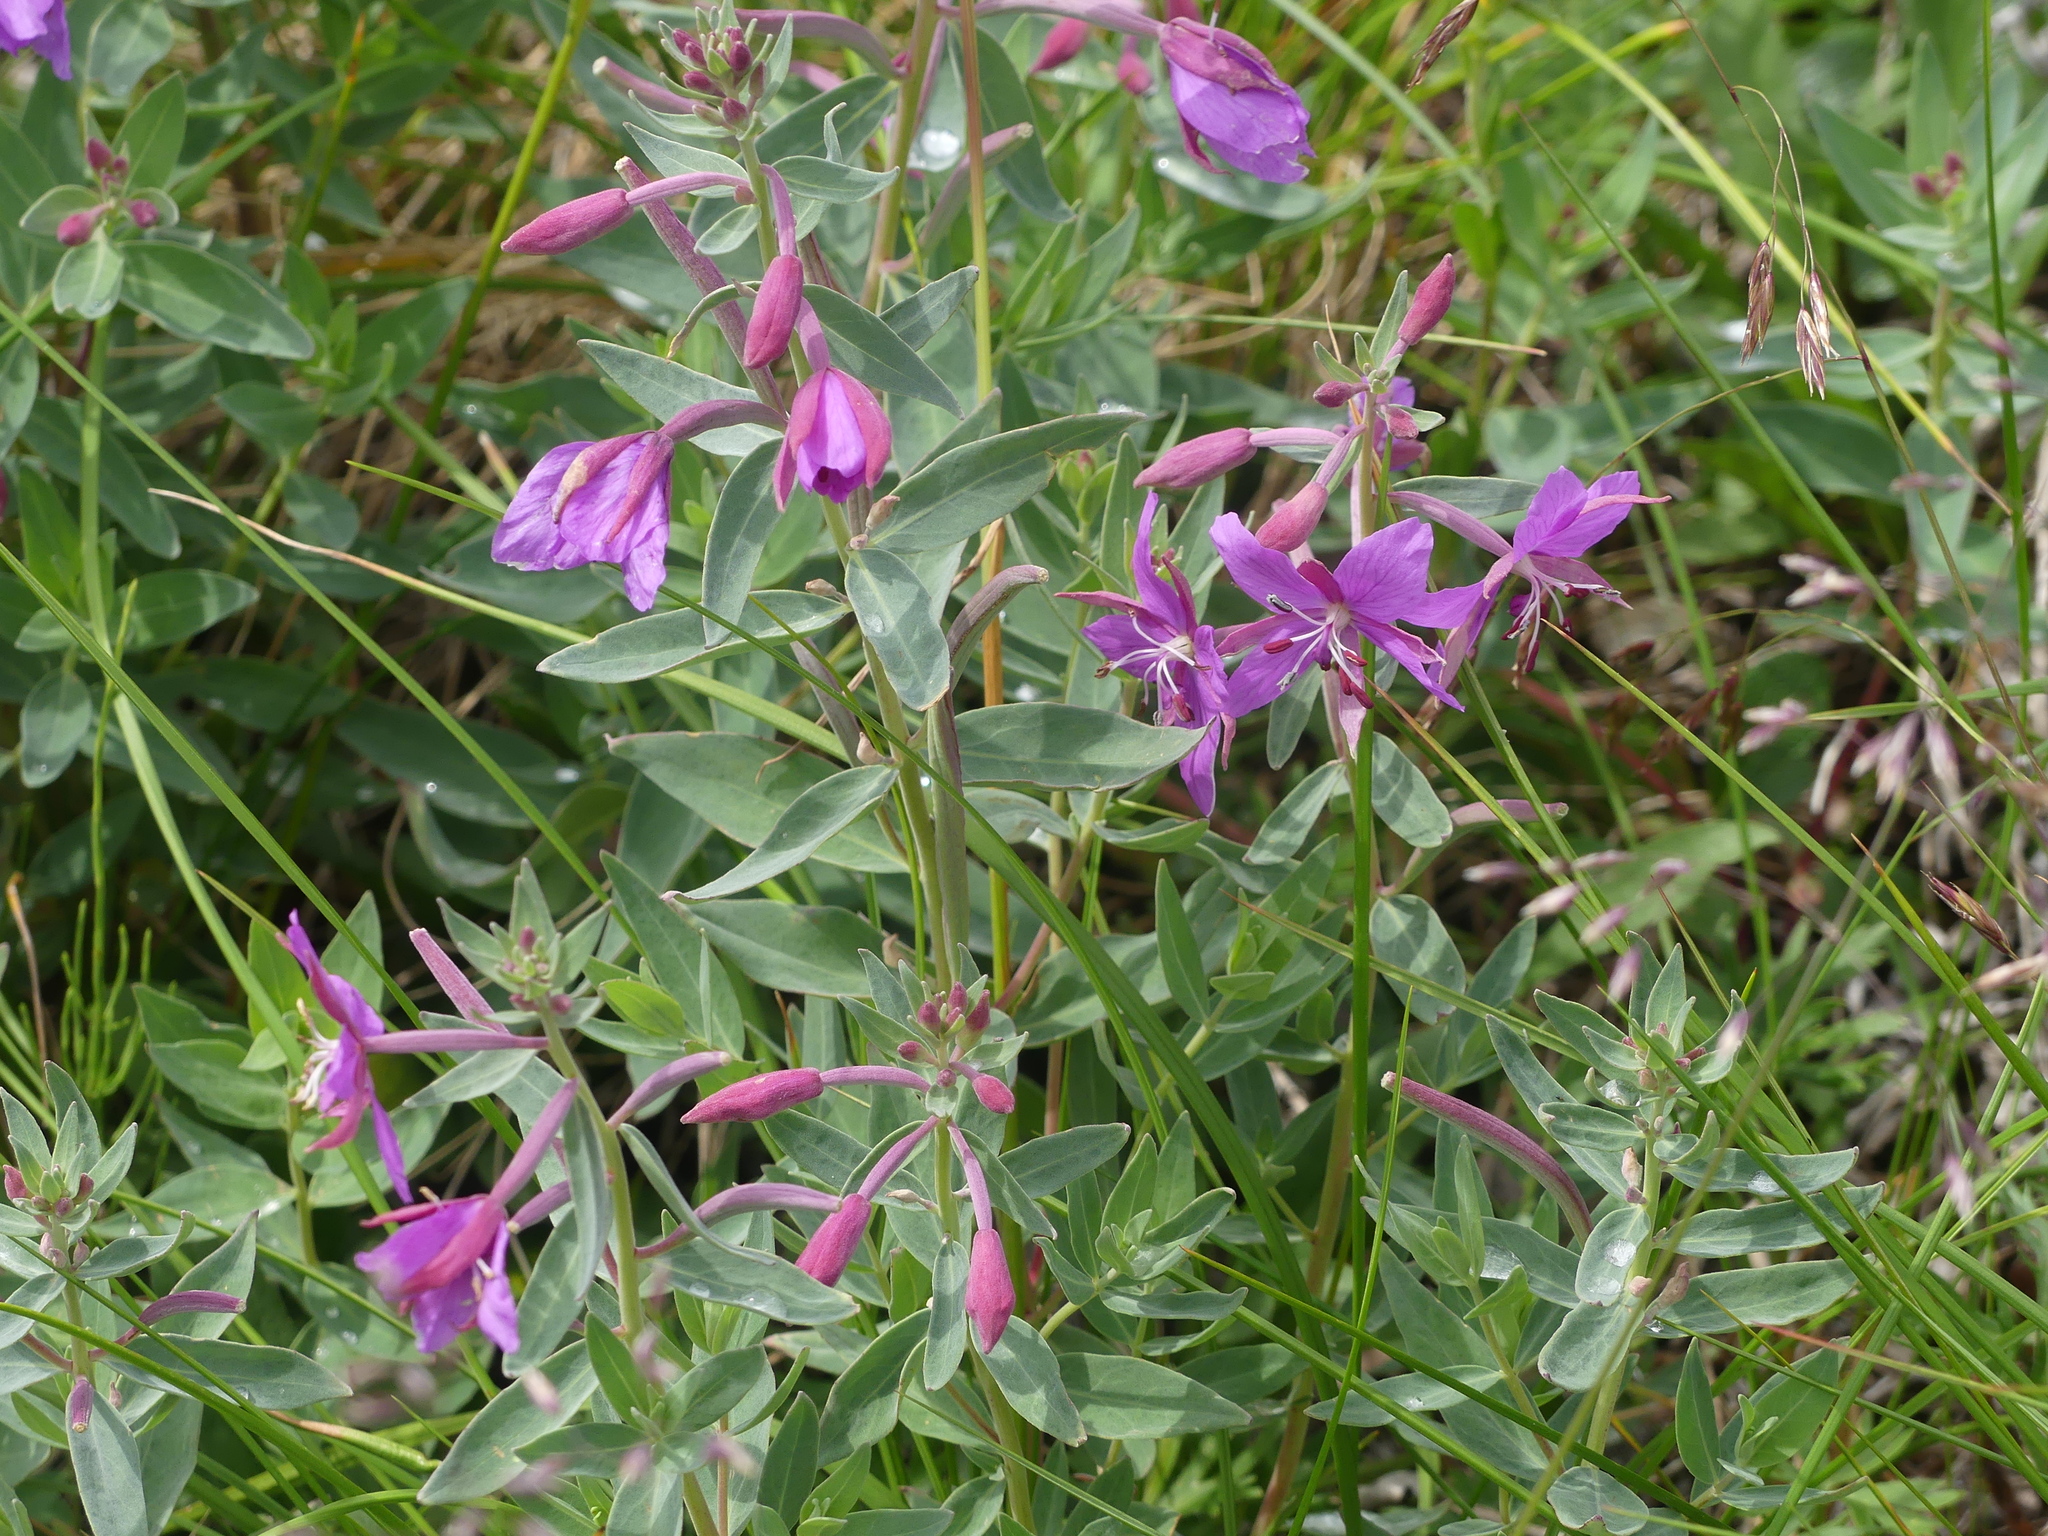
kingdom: Plantae
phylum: Tracheophyta
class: Magnoliopsida
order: Myrtales
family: Onagraceae
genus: Chamaenerion
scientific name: Chamaenerion latifolium
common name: Dwarf fireweed
